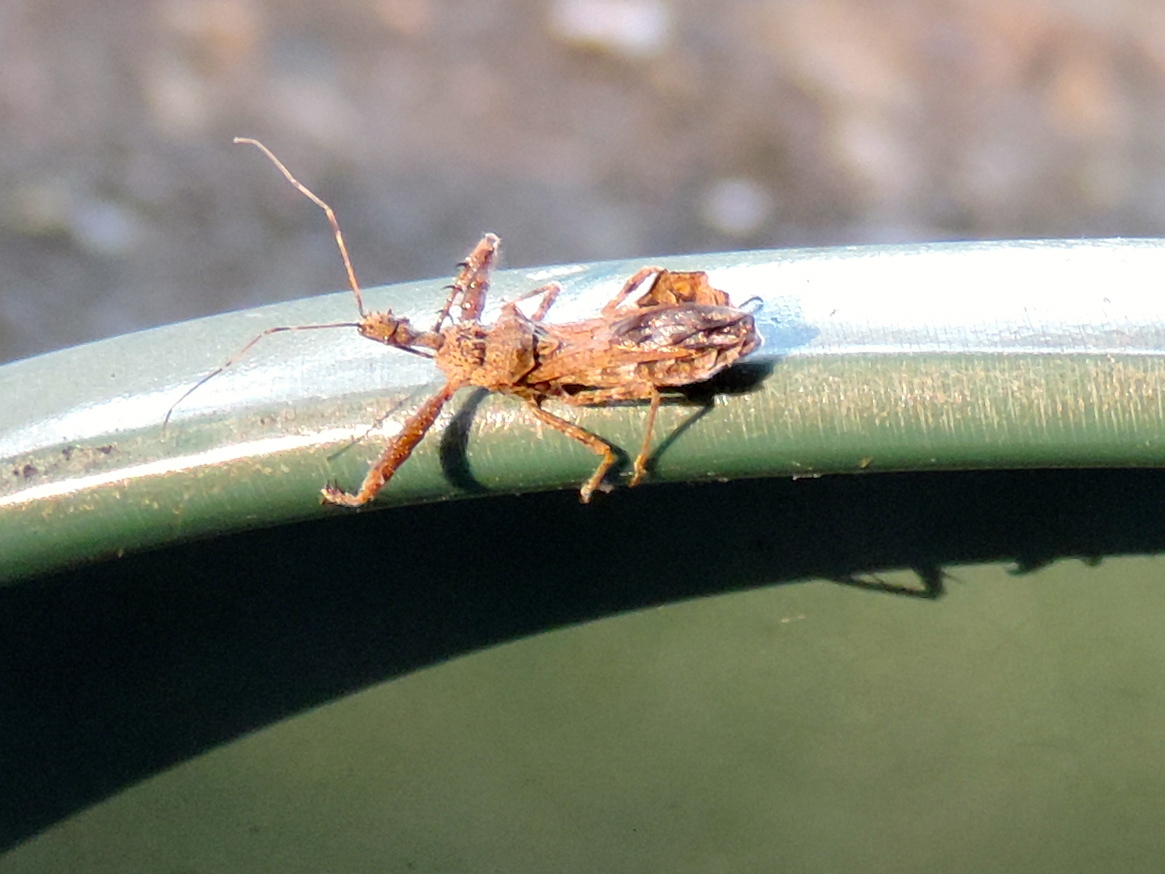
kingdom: Animalia
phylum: Arthropoda
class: Insecta
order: Hemiptera
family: Reduviidae
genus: Sinea
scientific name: Sinea spinipes
